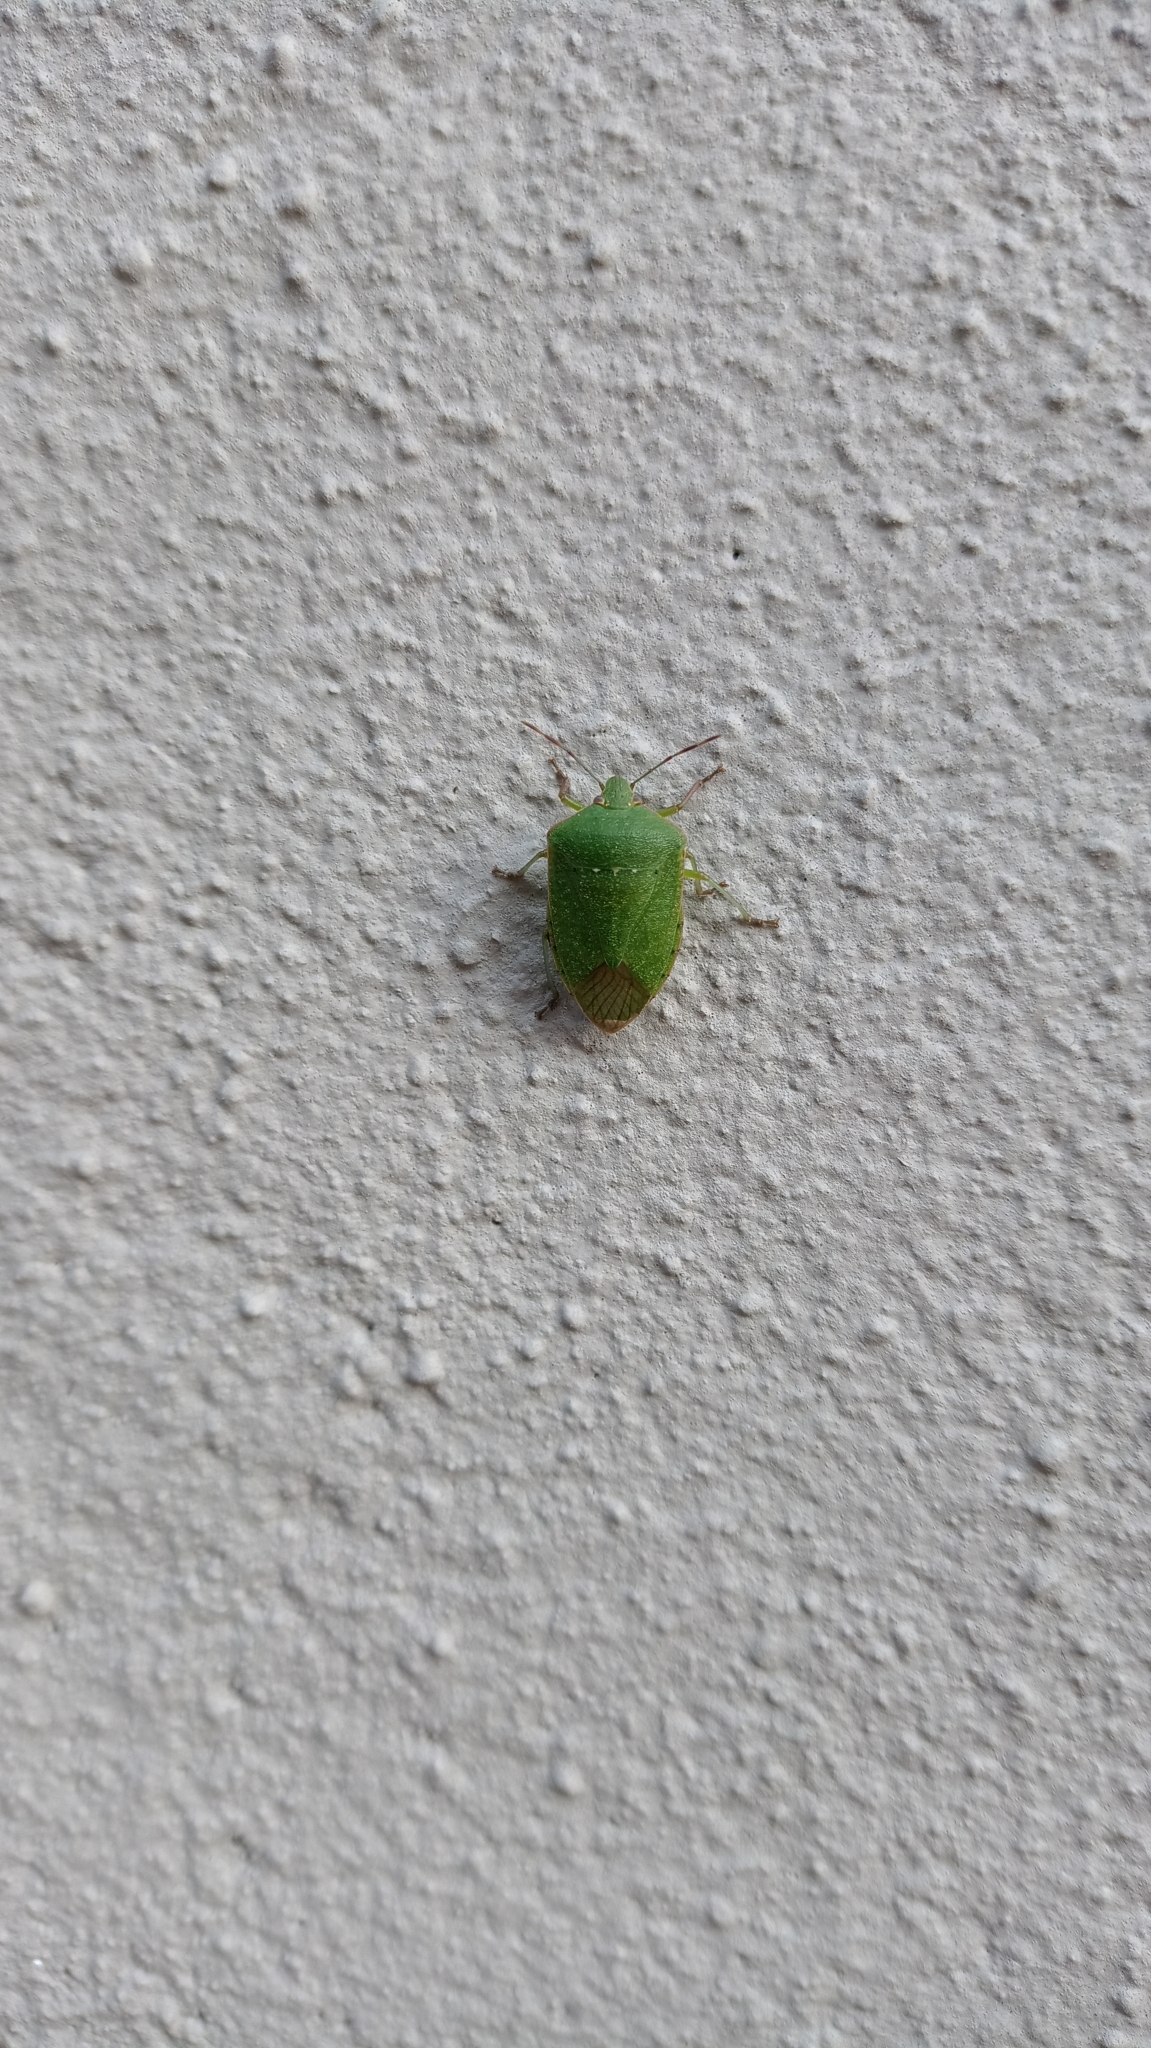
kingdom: Animalia
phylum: Arthropoda
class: Insecta
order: Hemiptera
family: Pentatomidae
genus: Nezara
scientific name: Nezara viridula
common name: Southern green stink bug
